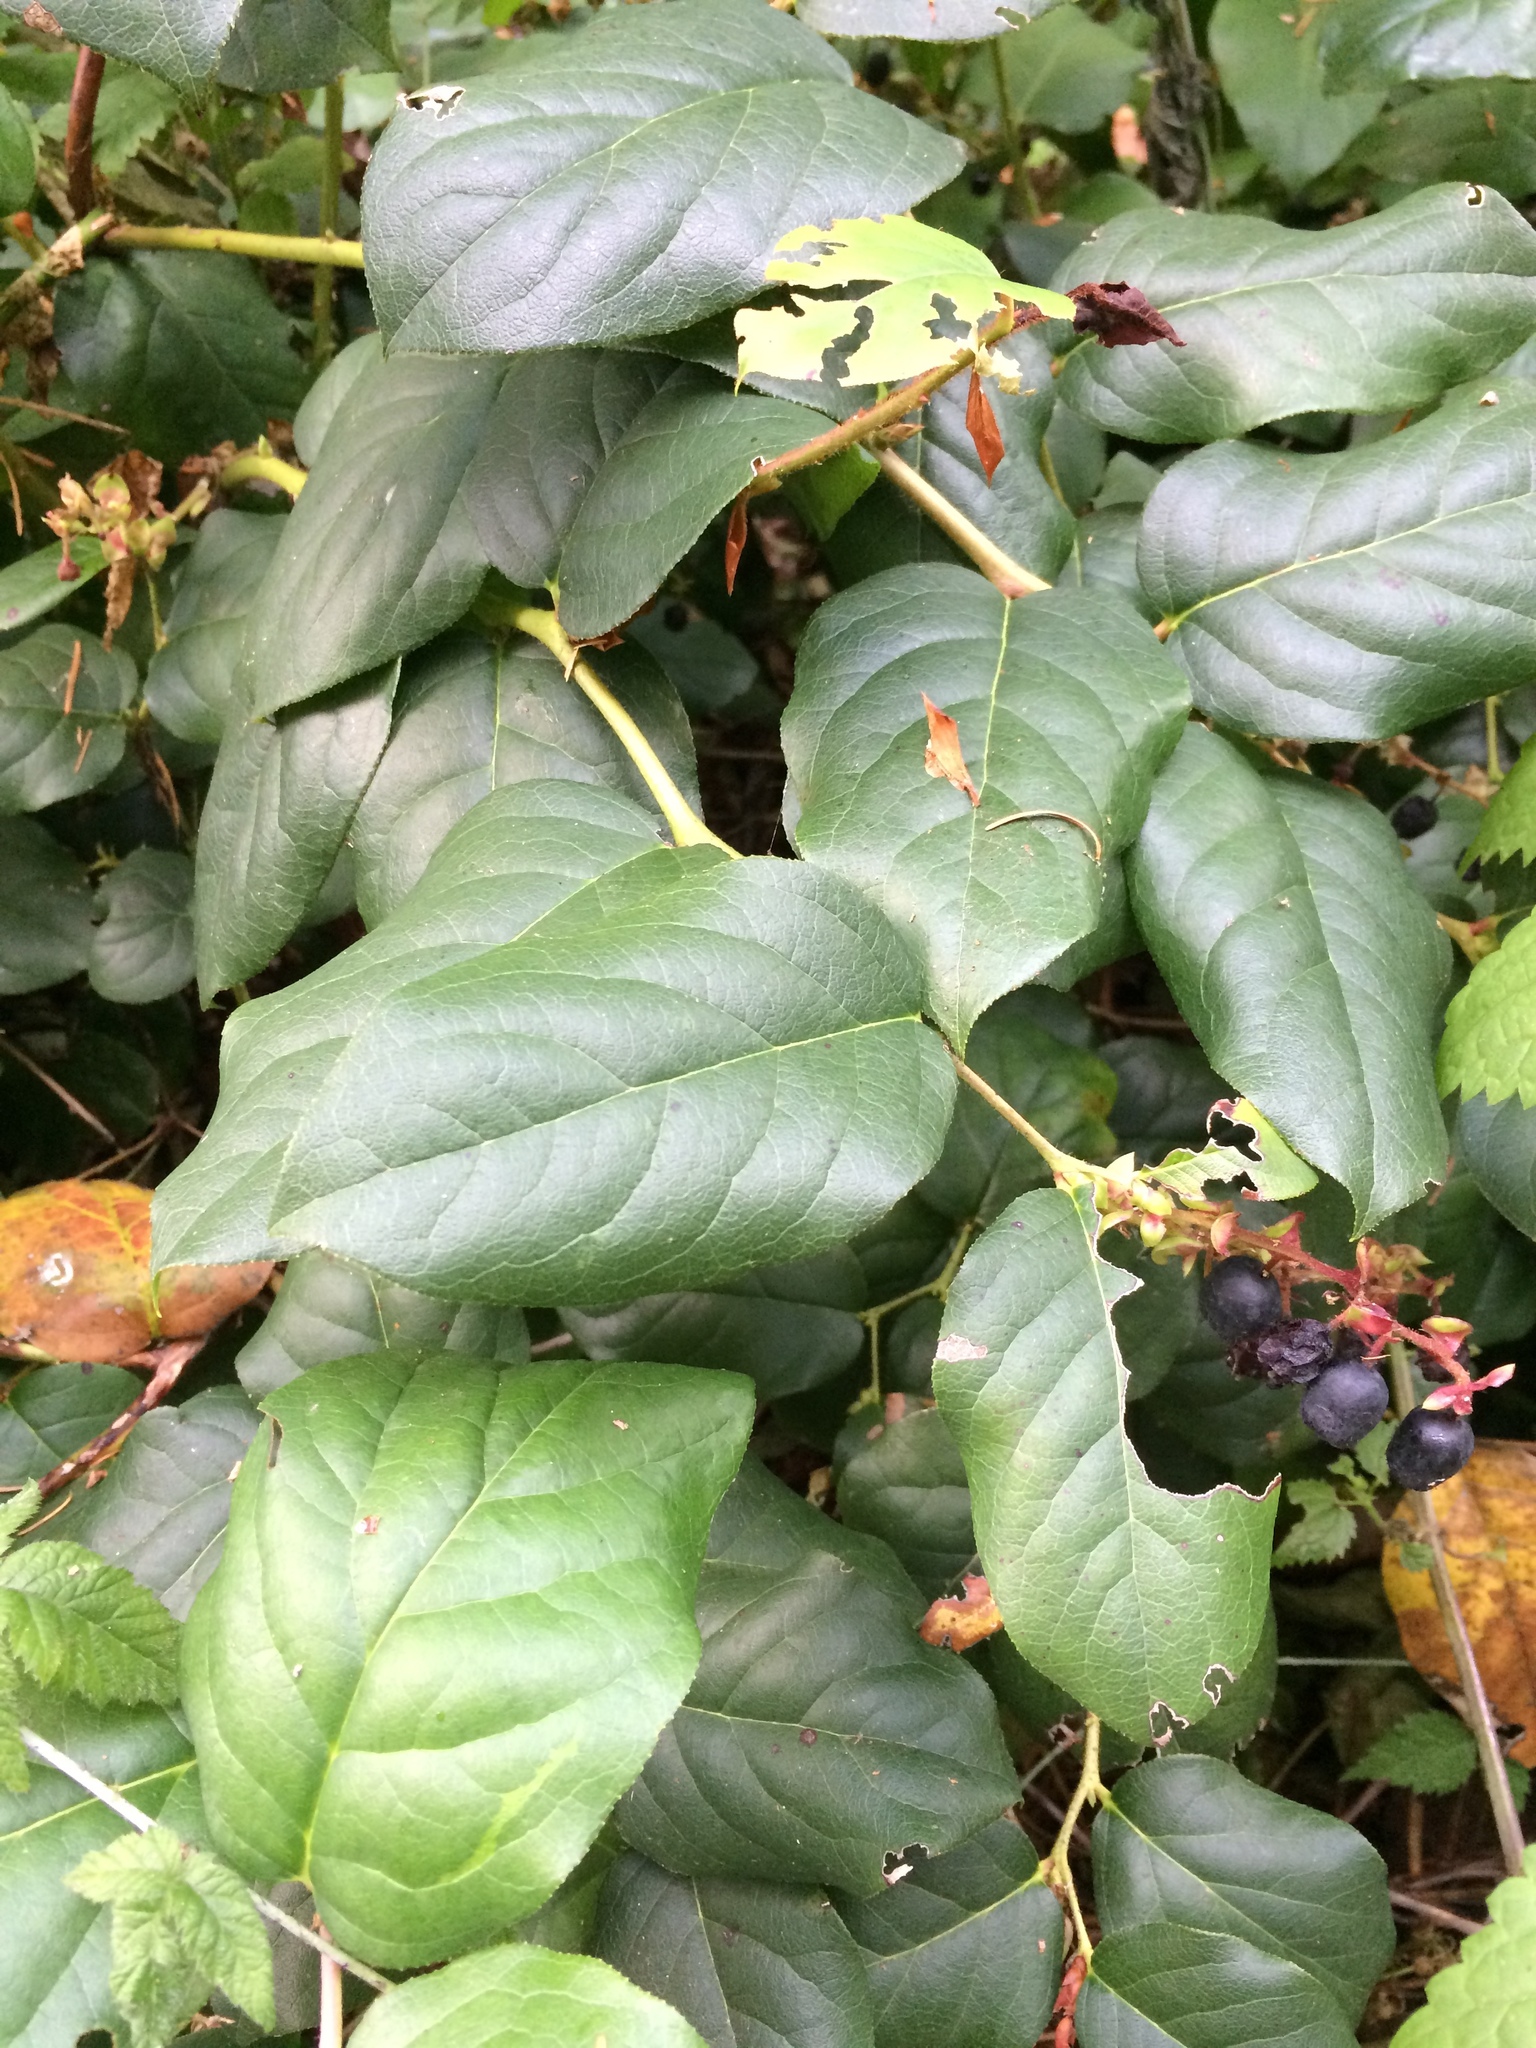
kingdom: Plantae
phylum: Tracheophyta
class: Magnoliopsida
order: Ericales
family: Ericaceae
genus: Gaultheria
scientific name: Gaultheria shallon
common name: Shallon
